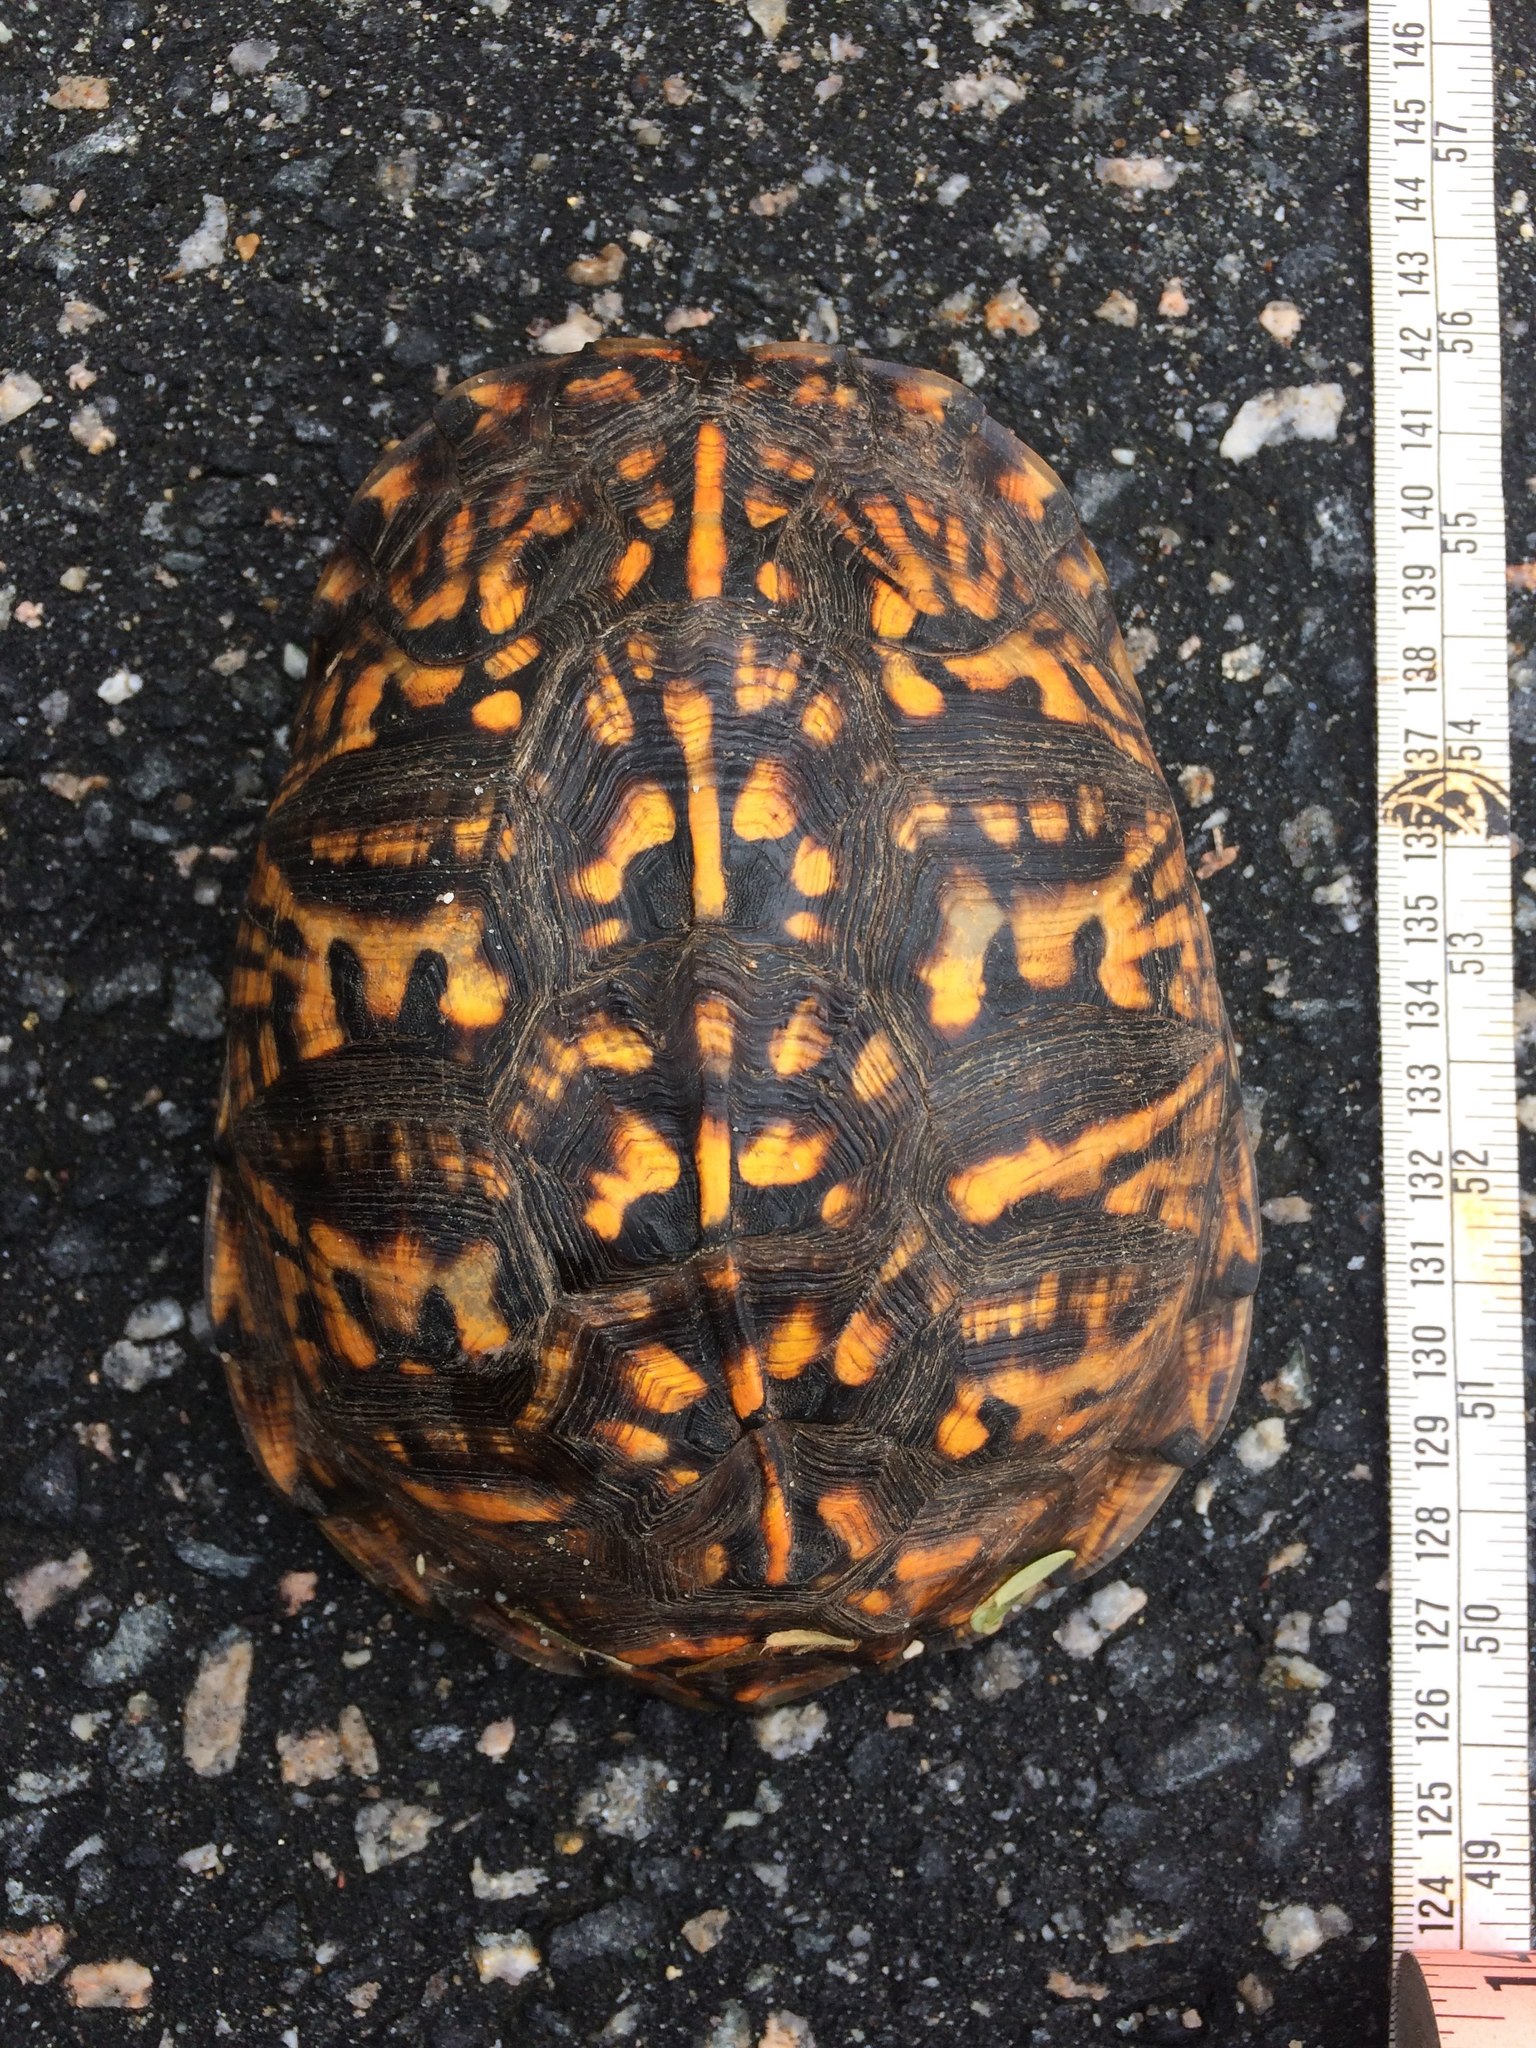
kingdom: Animalia
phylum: Chordata
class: Testudines
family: Emydidae
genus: Terrapene
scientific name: Terrapene carolina
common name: Common box turtle
